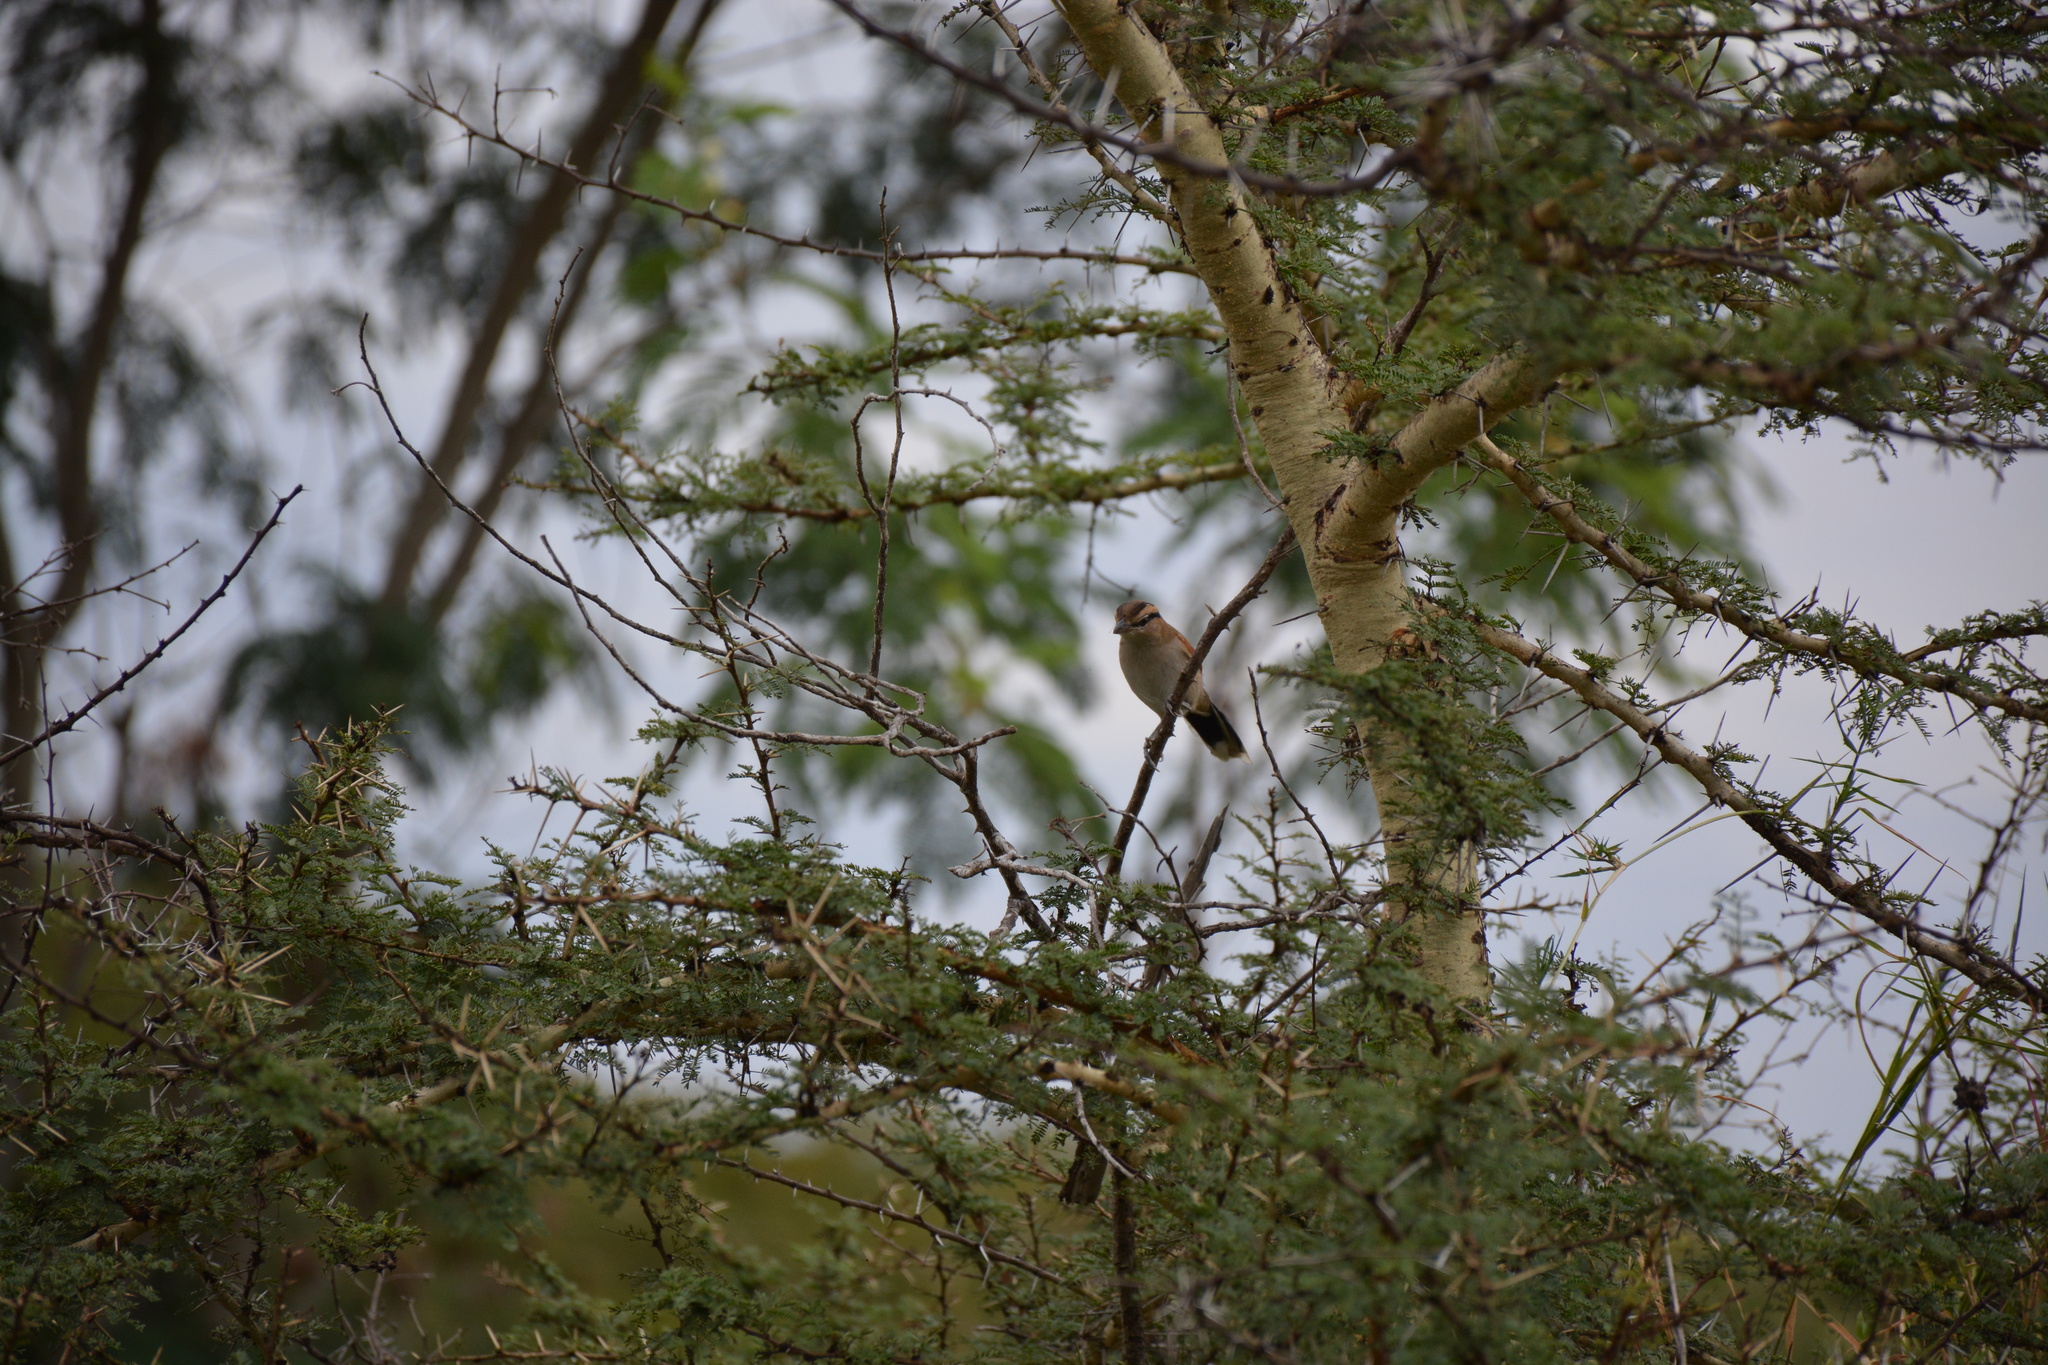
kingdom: Animalia
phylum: Chordata
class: Aves
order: Passeriformes
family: Malaconotidae
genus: Tchagra
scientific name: Tchagra australis
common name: Brown-crowned tchagra
